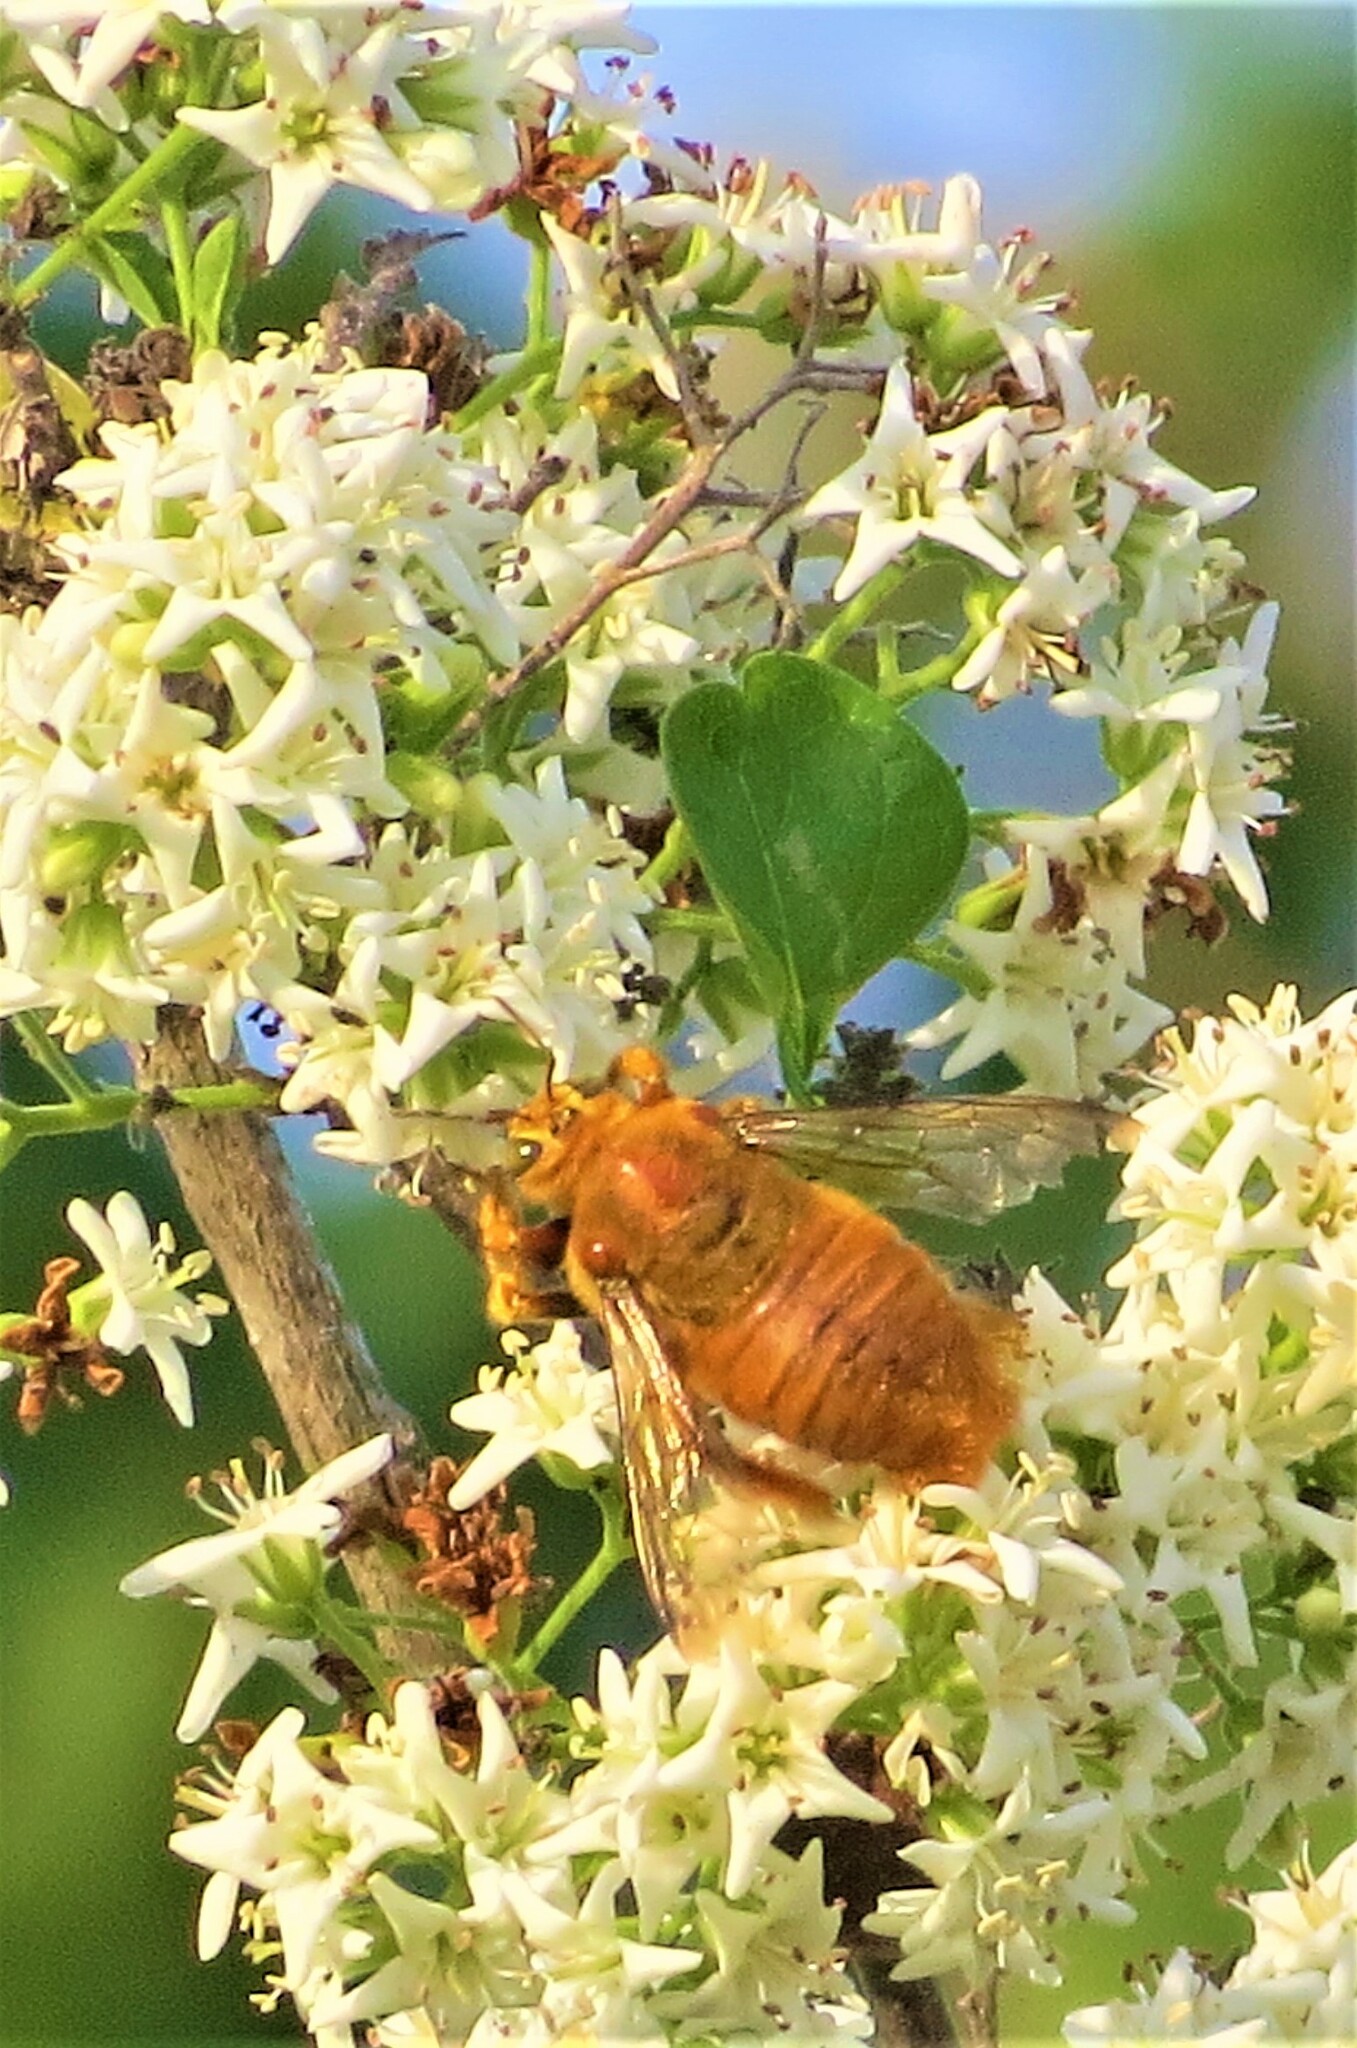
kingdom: Animalia
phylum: Arthropoda
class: Insecta
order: Hymenoptera
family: Apidae
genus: Xylocopa
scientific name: Xylocopa griswoldi
